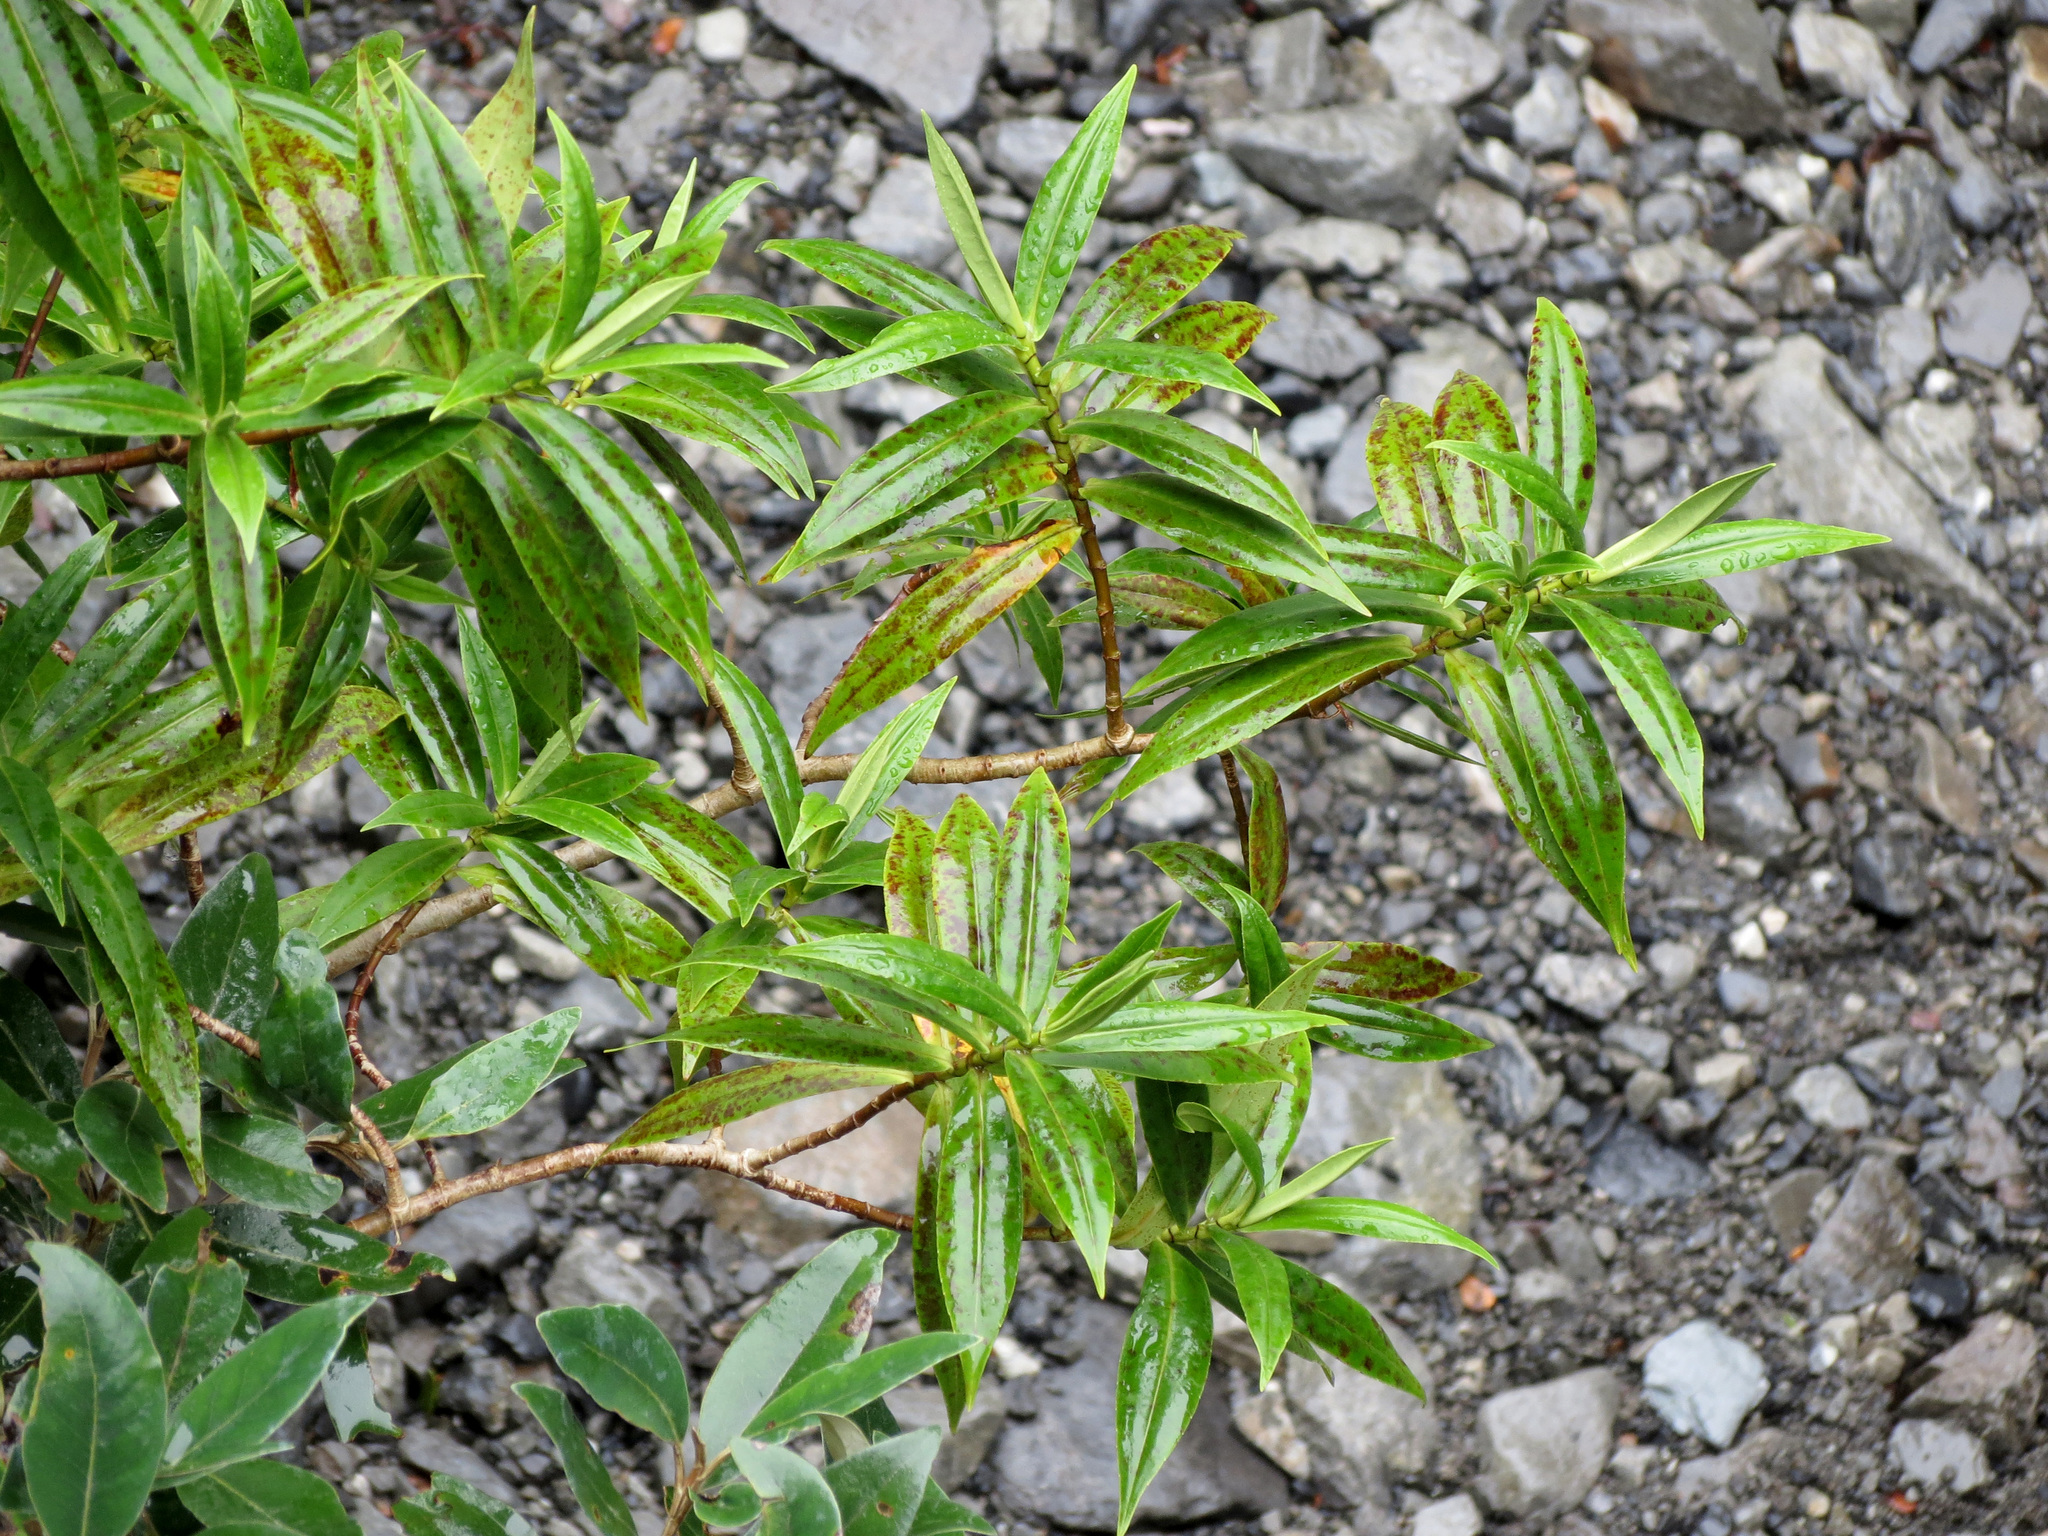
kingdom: Plantae
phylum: Tracheophyta
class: Magnoliopsida
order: Lamiales
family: Plantaginaceae
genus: Veronica
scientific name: Veronica salicifolia
